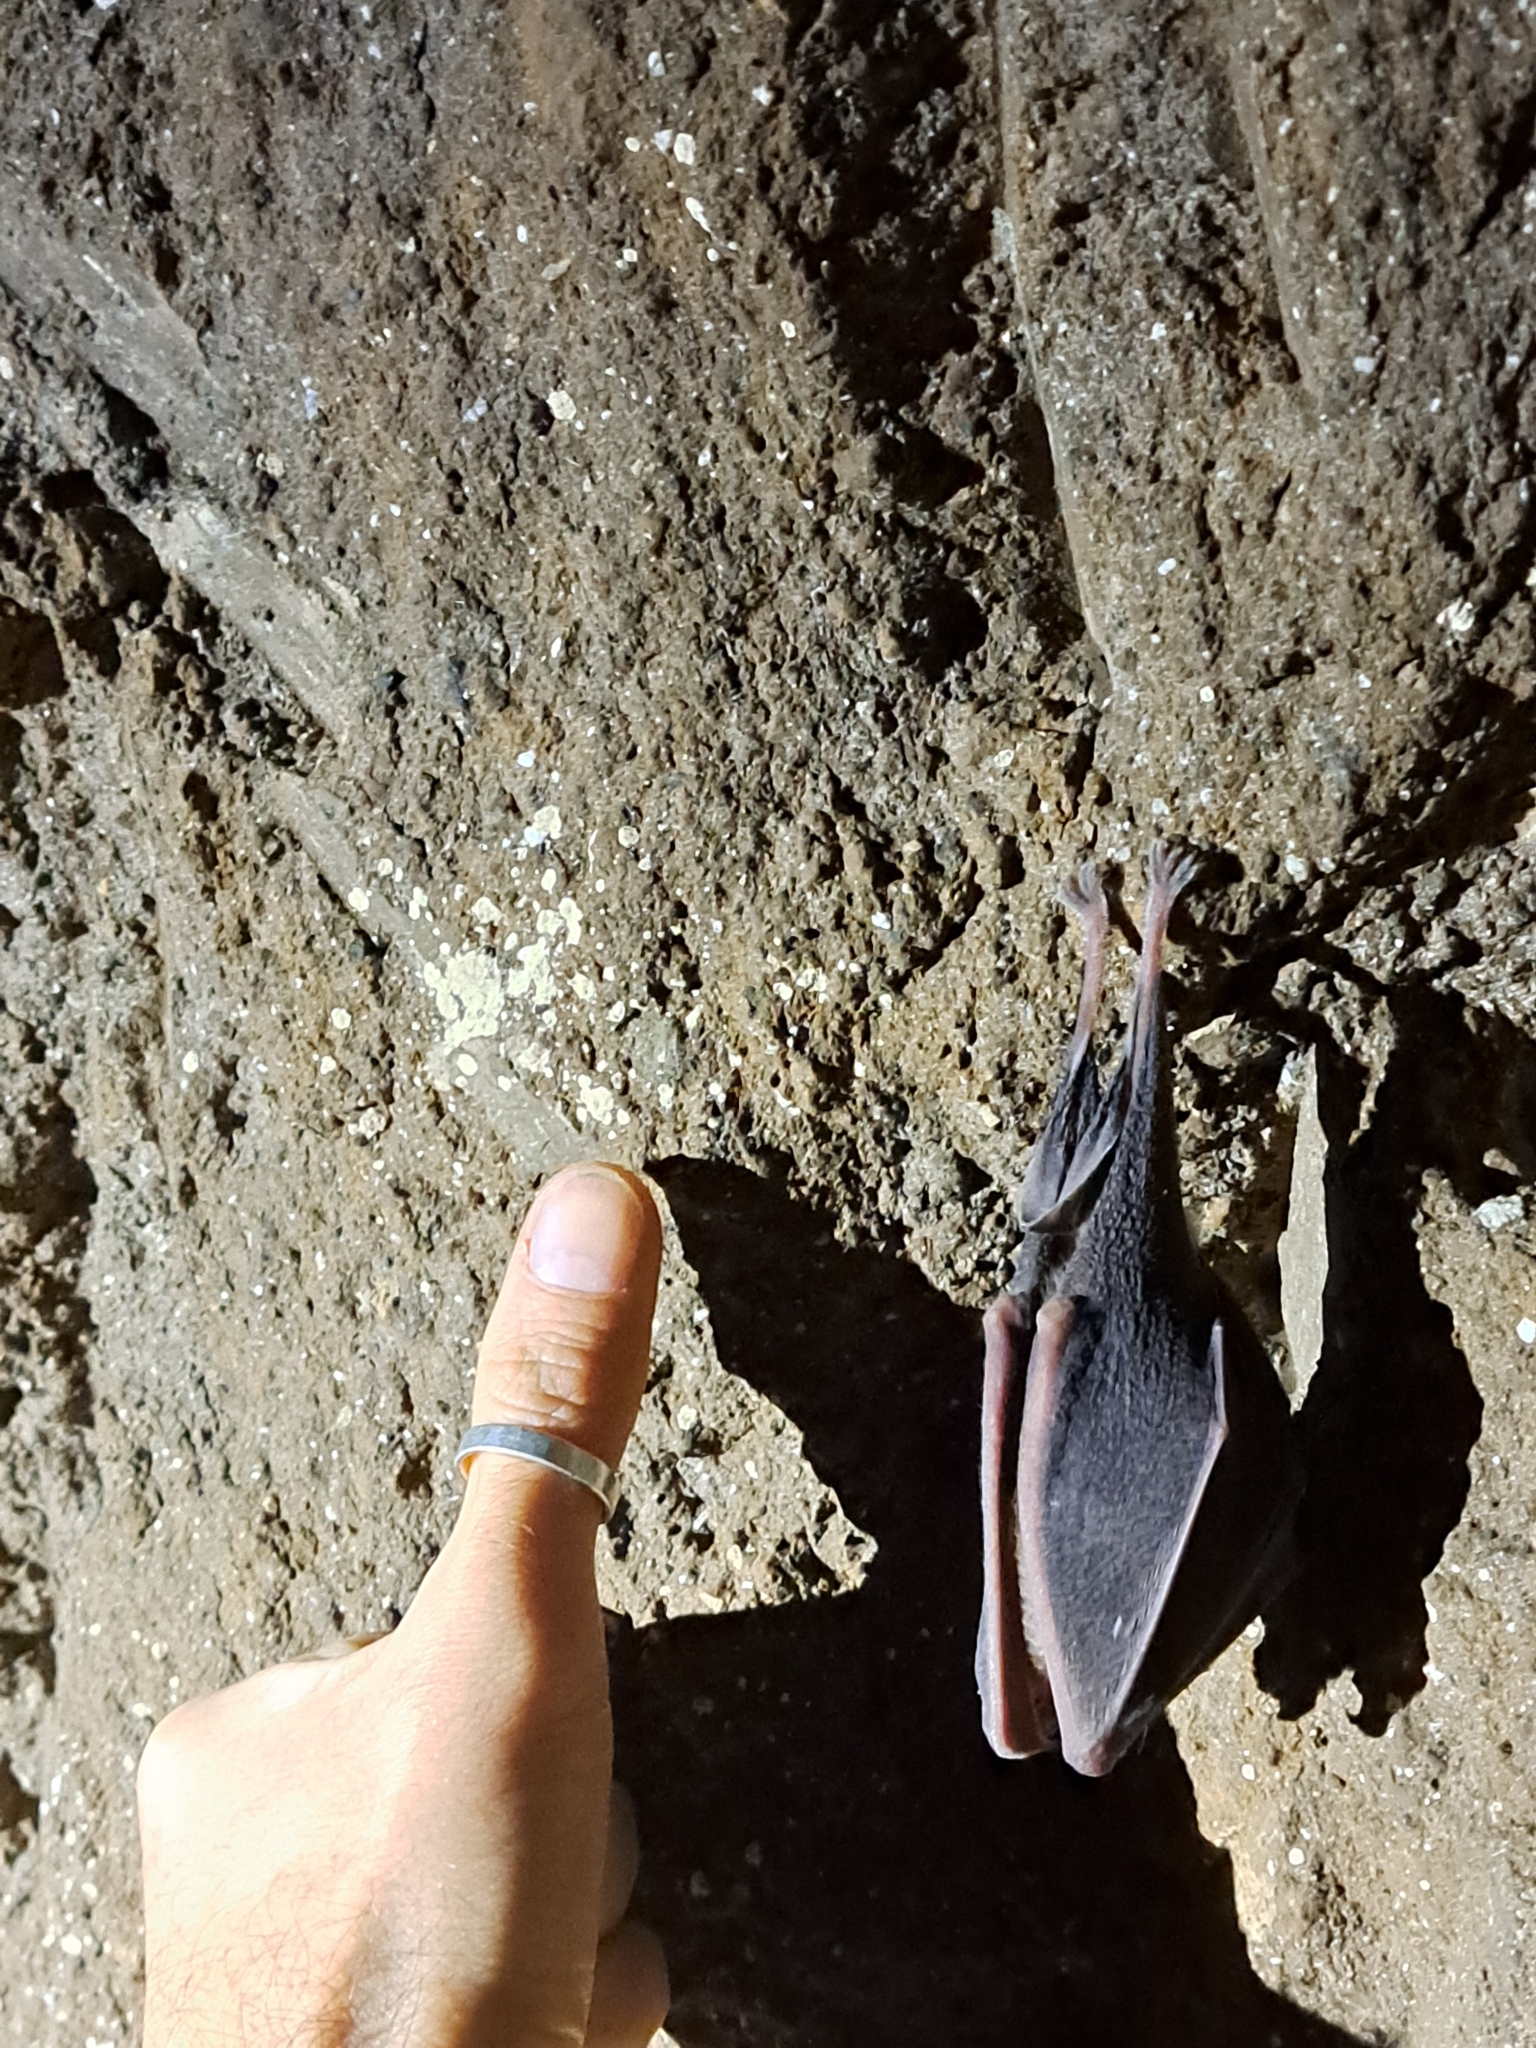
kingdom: Animalia
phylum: Chordata
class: Mammalia
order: Chiroptera
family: Rhinolophidae
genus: Rhinolophus
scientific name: Rhinolophus ferrumequinum
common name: Greater horseshoe bat
